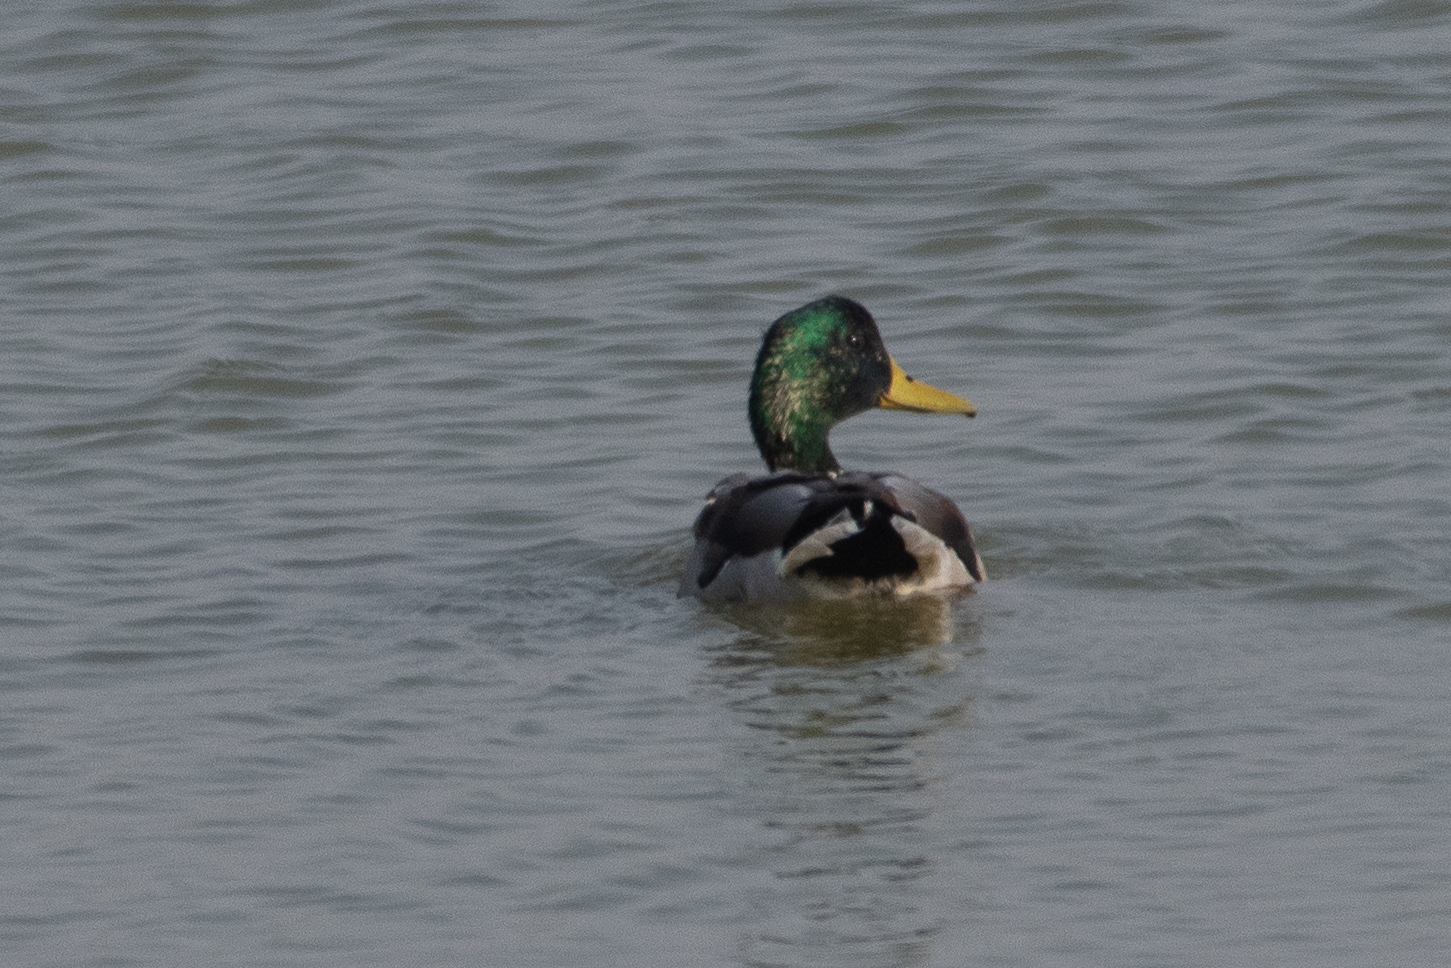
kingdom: Animalia
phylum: Chordata
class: Aves
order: Anseriformes
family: Anatidae
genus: Anas
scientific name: Anas platyrhynchos
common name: Mallard
